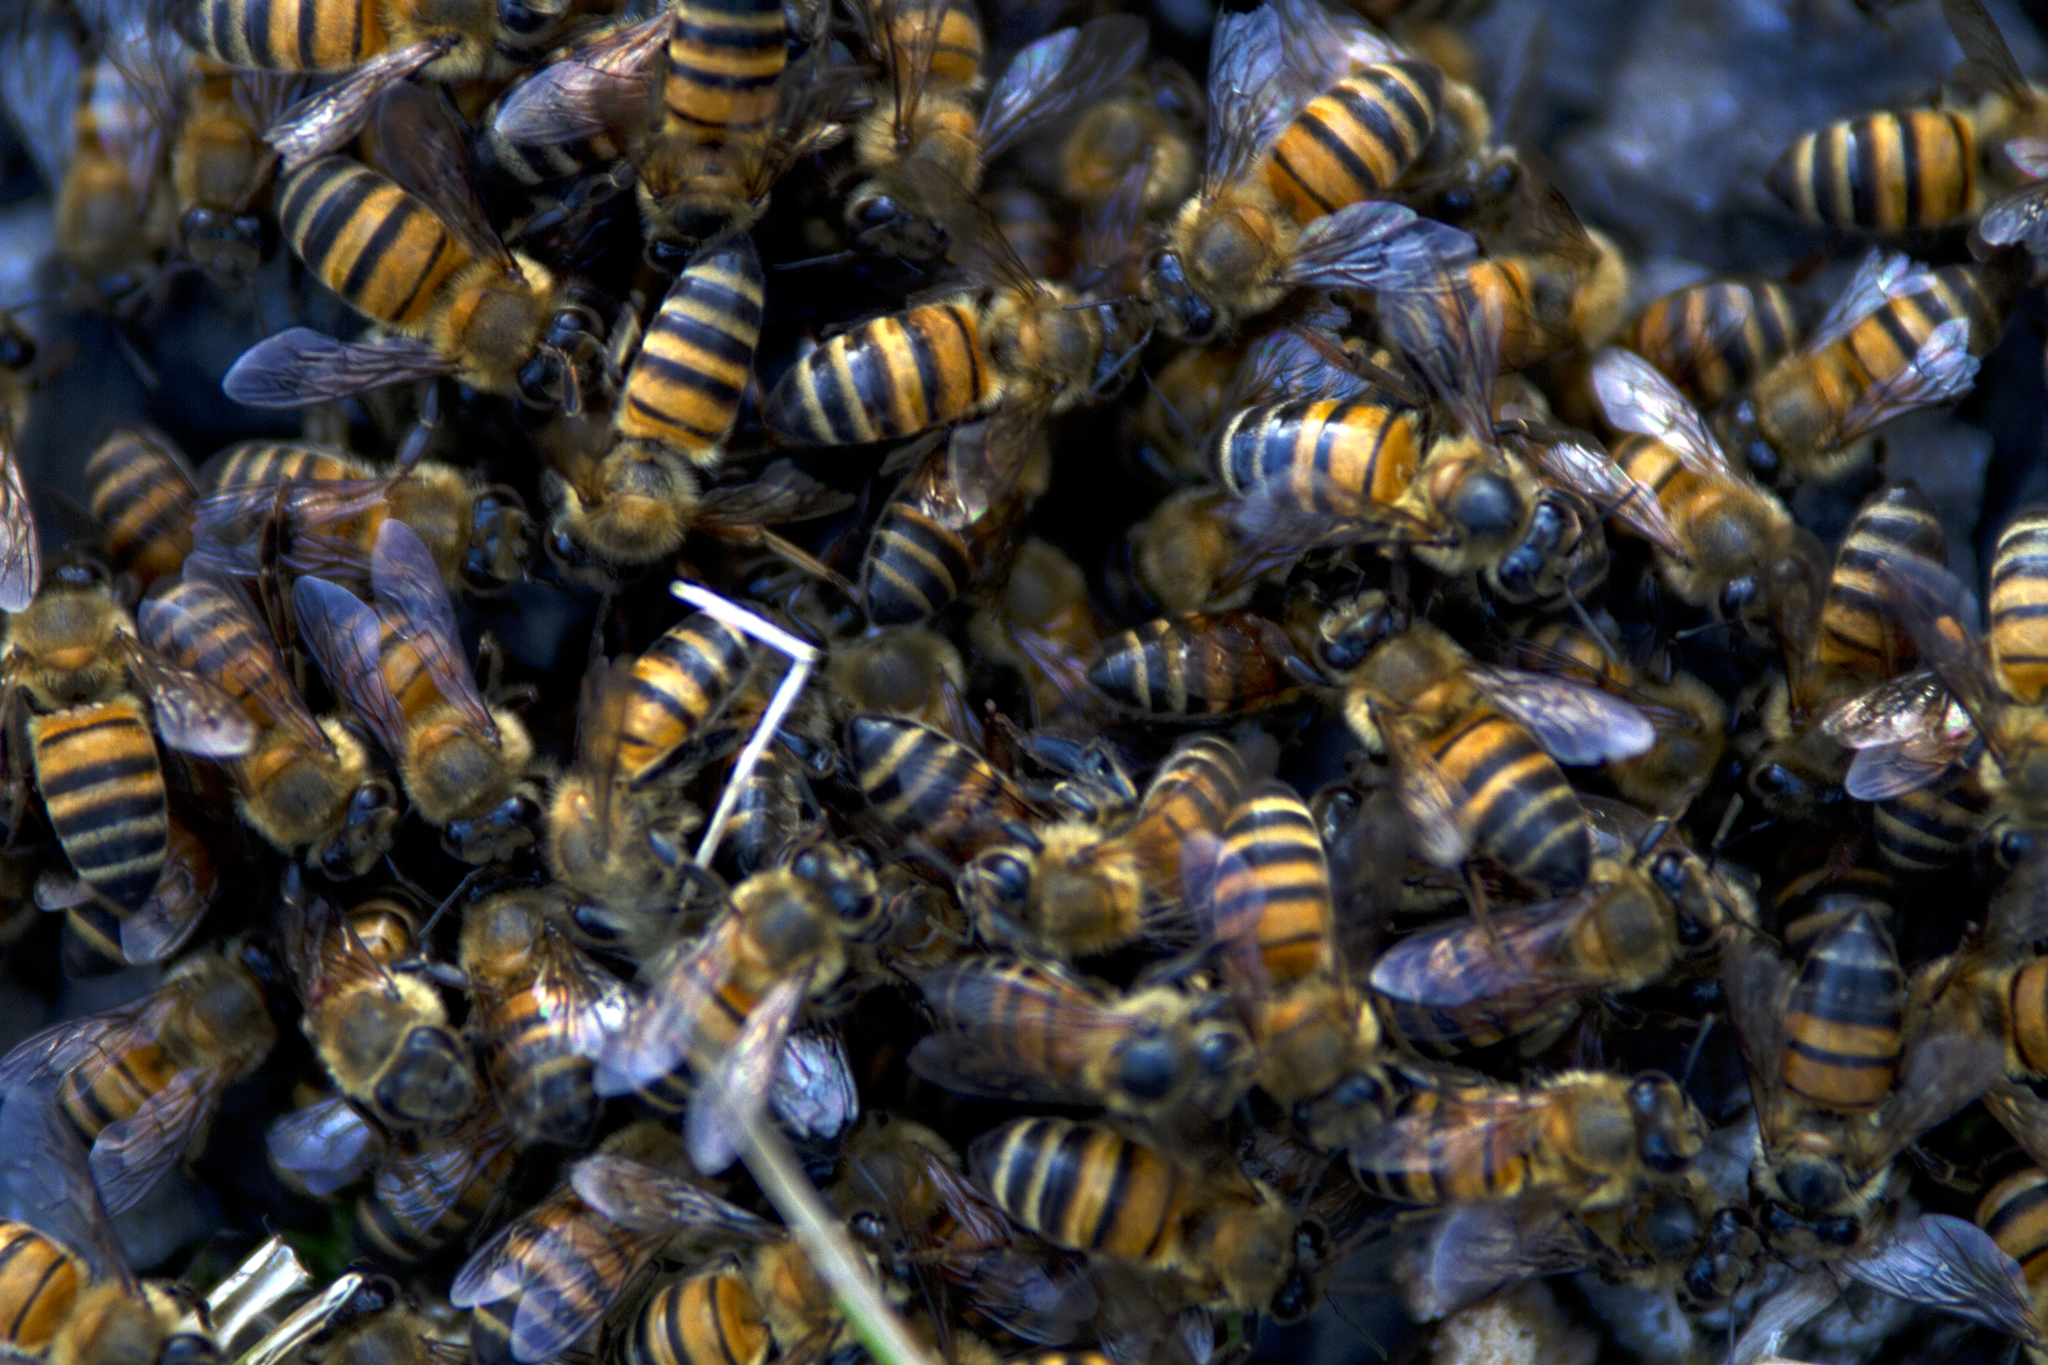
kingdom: Animalia
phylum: Arthropoda
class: Insecta
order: Hymenoptera
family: Apidae
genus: Apis
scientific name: Apis mellifera
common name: Honey bee
